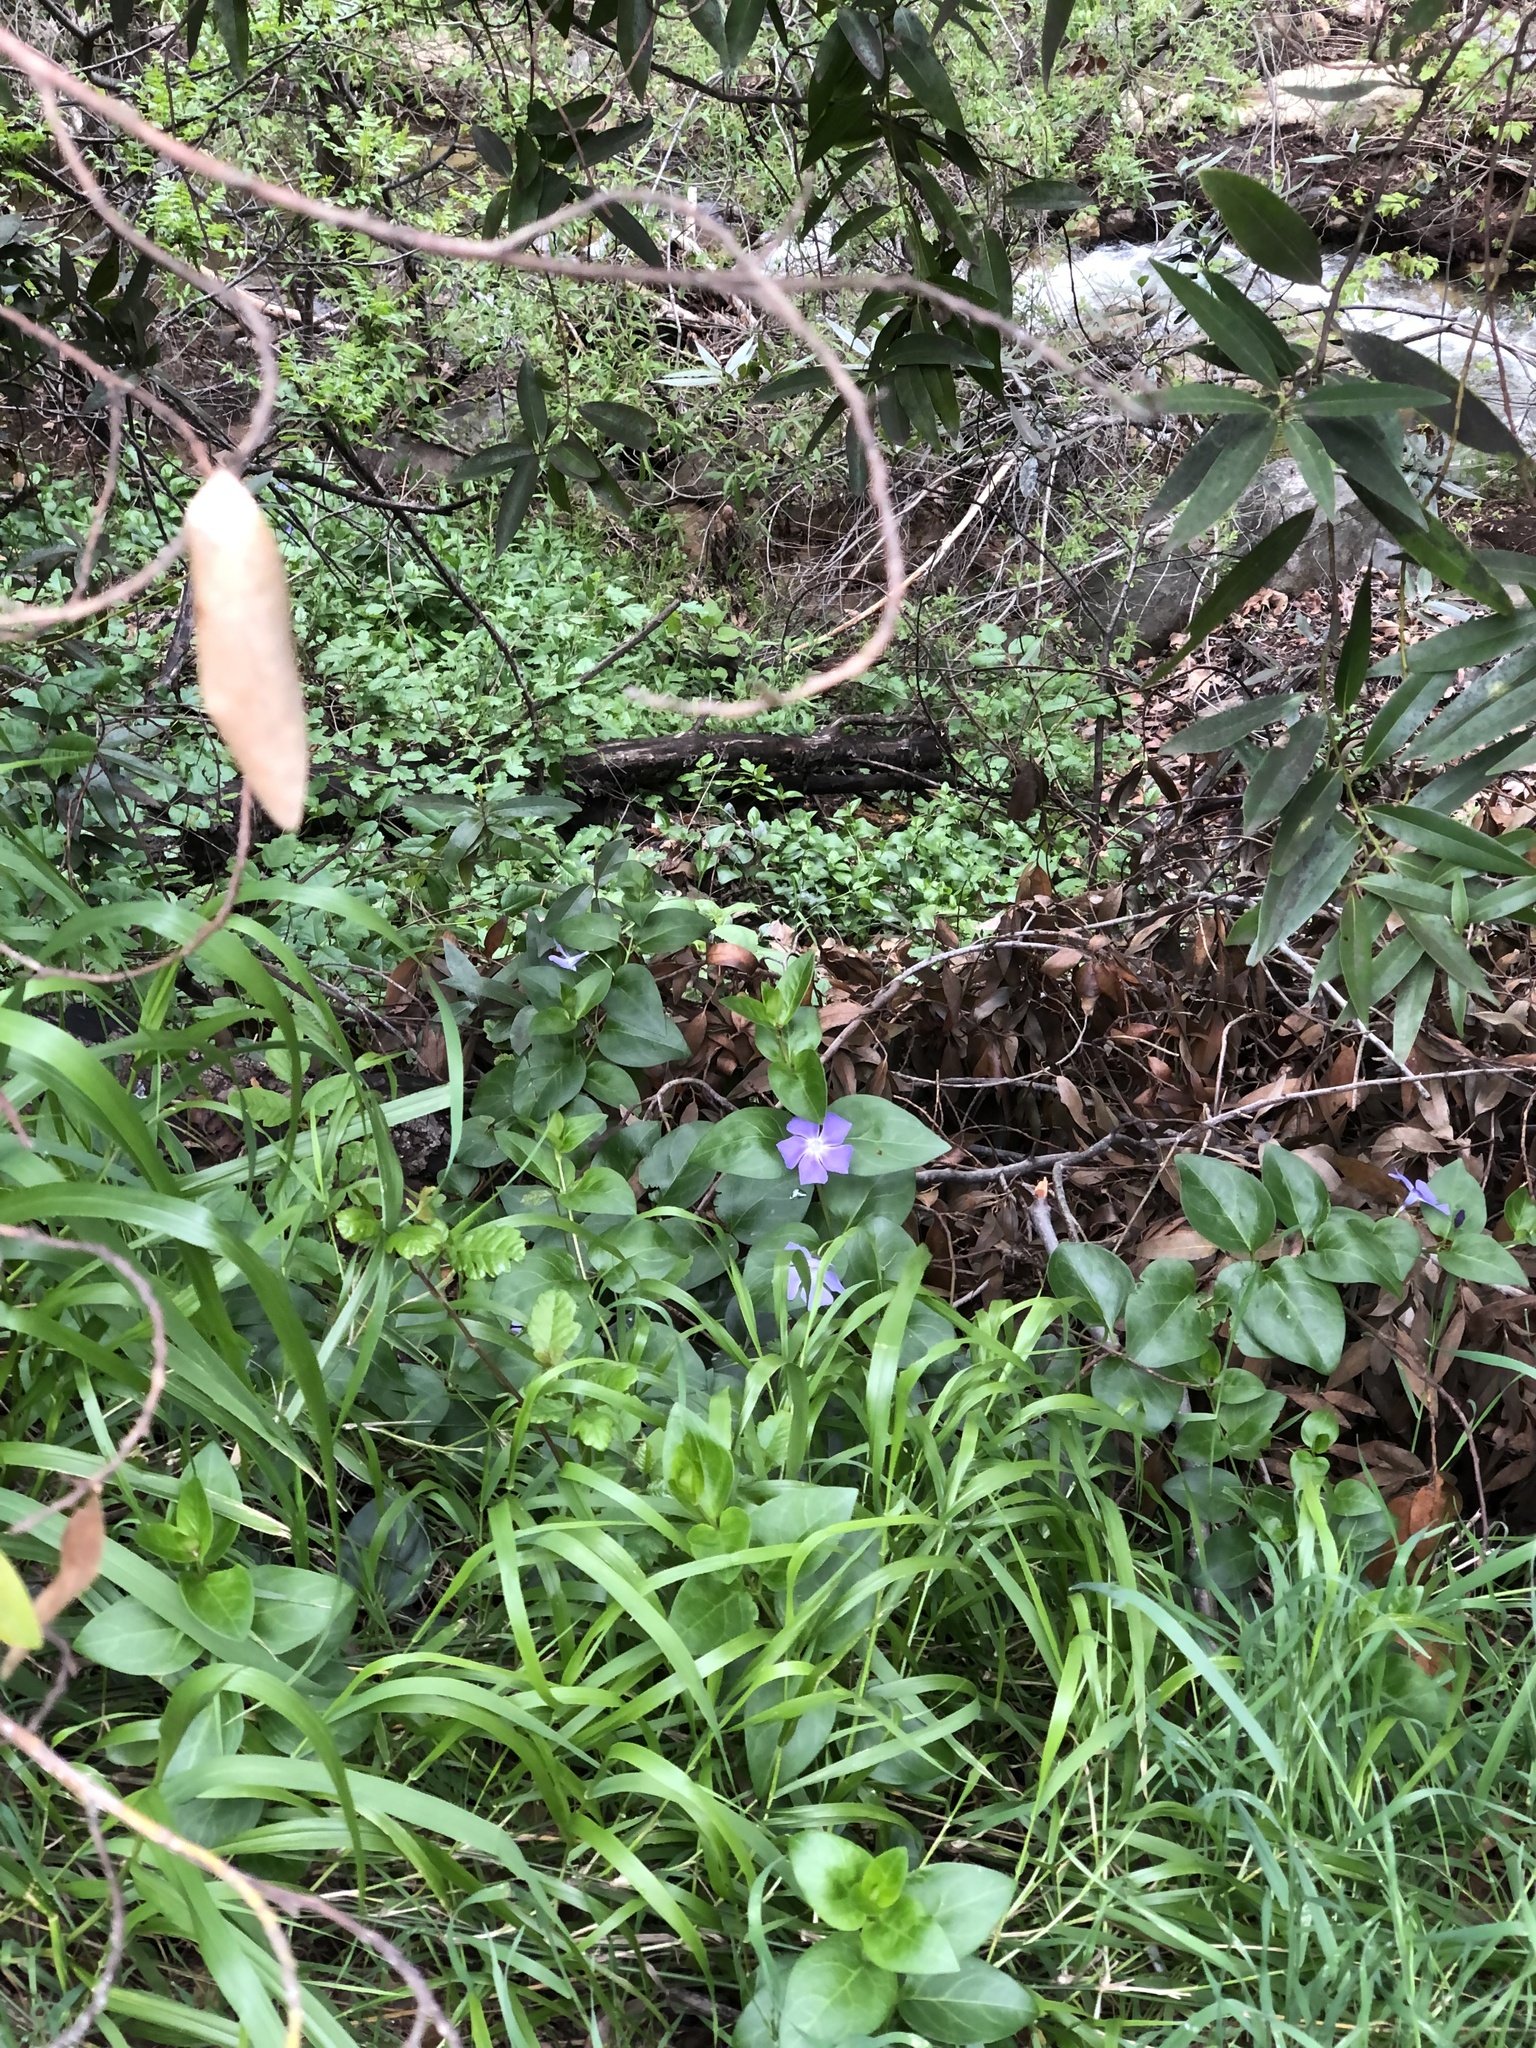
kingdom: Plantae
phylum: Tracheophyta
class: Magnoliopsida
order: Gentianales
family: Apocynaceae
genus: Vinca
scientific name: Vinca major
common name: Greater periwinkle
